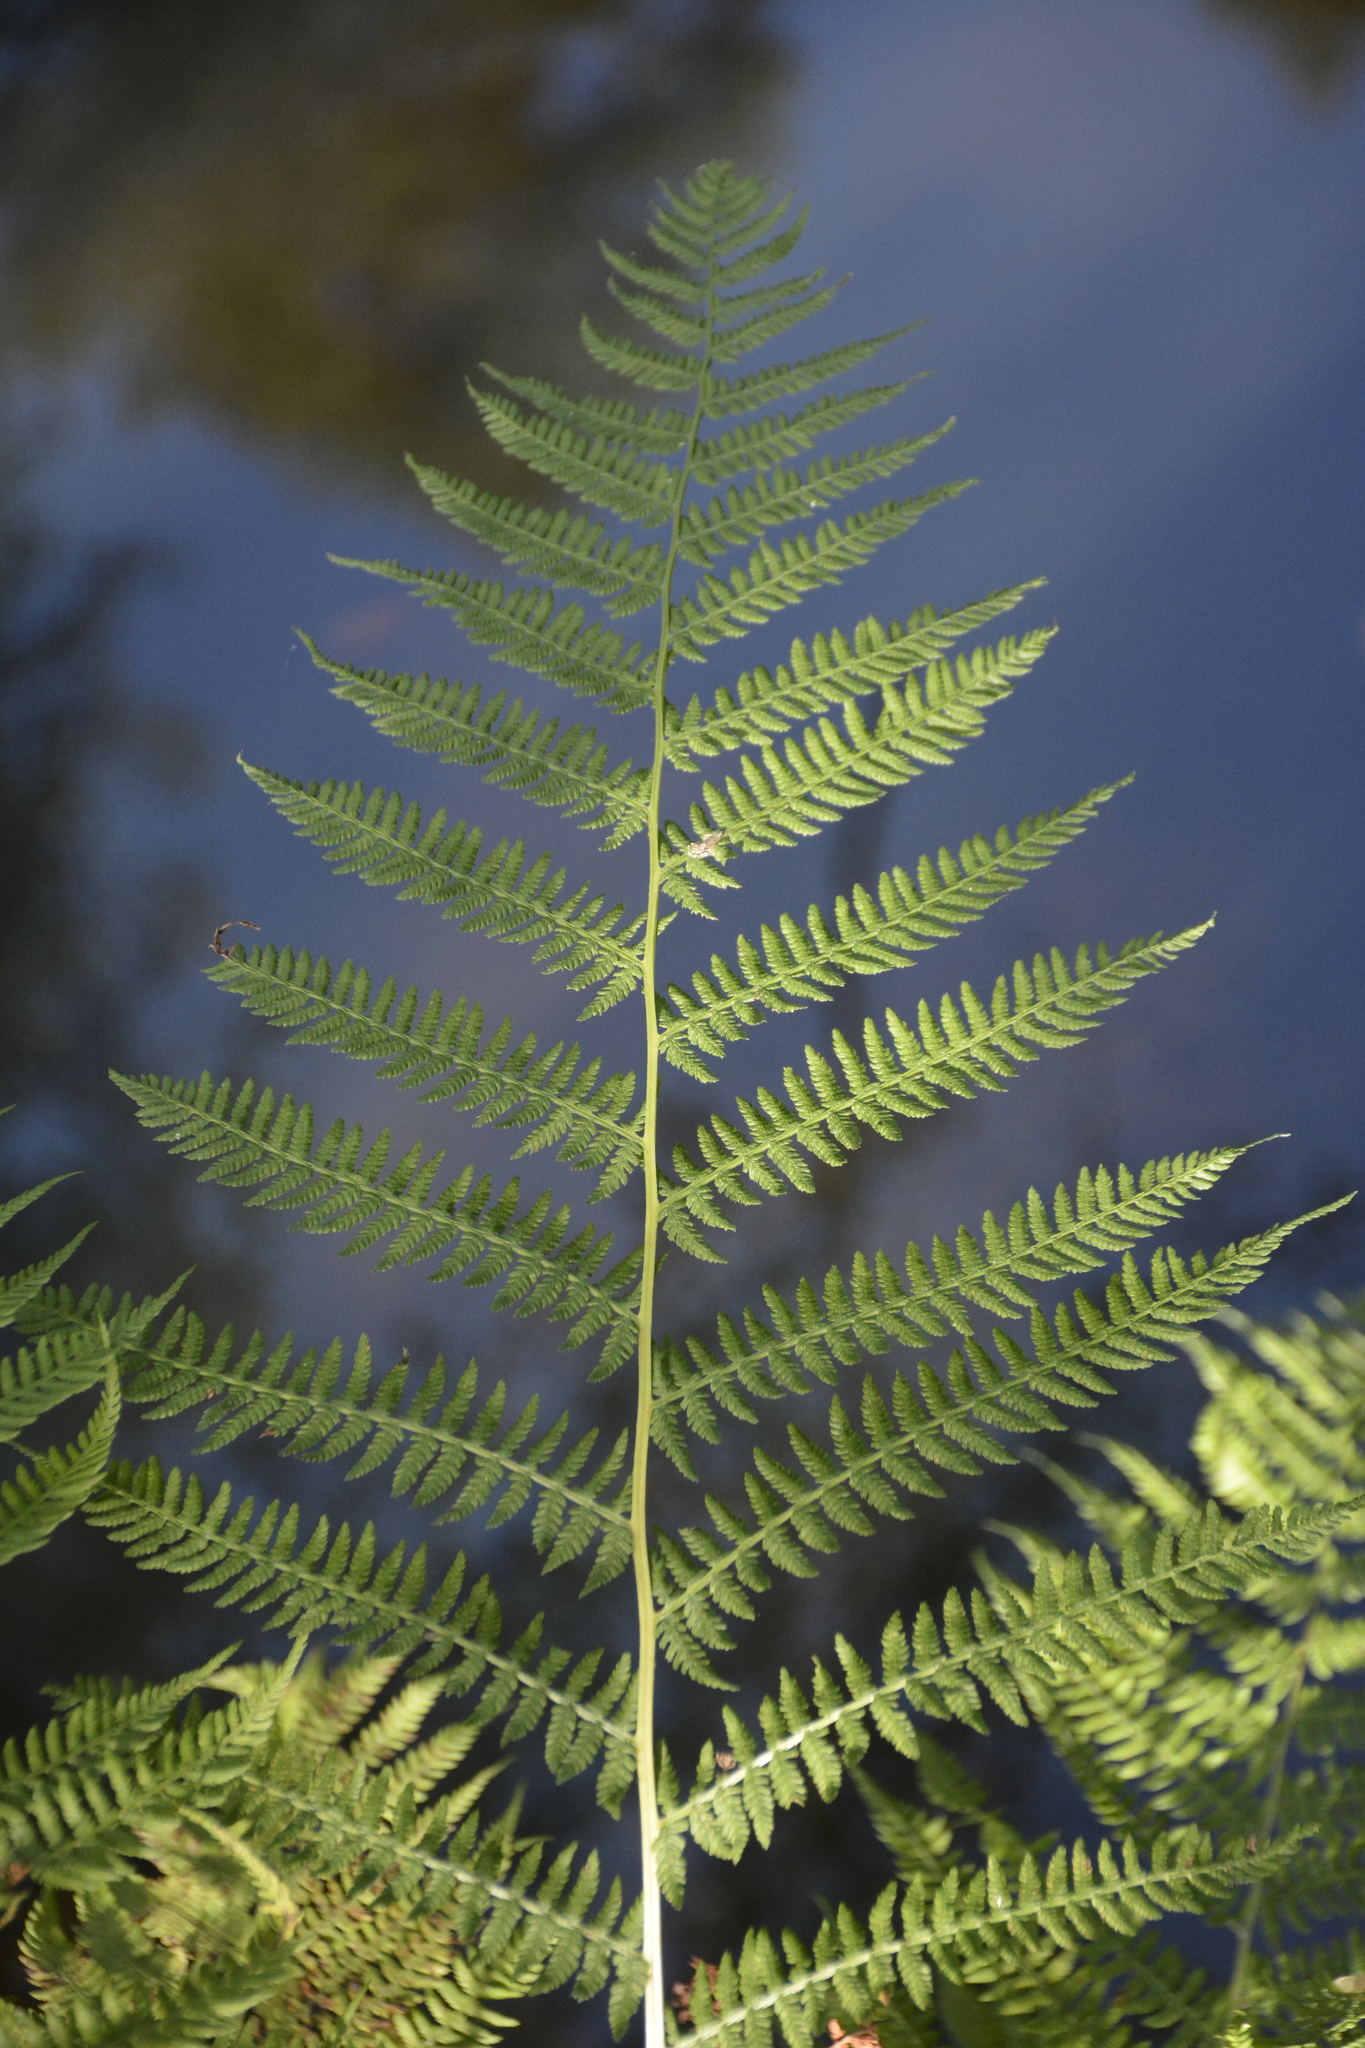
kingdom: Plantae
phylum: Tracheophyta
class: Polypodiopsida
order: Polypodiales
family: Athyriaceae
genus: Athyrium
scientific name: Athyrium filix-femina
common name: Lady fern
